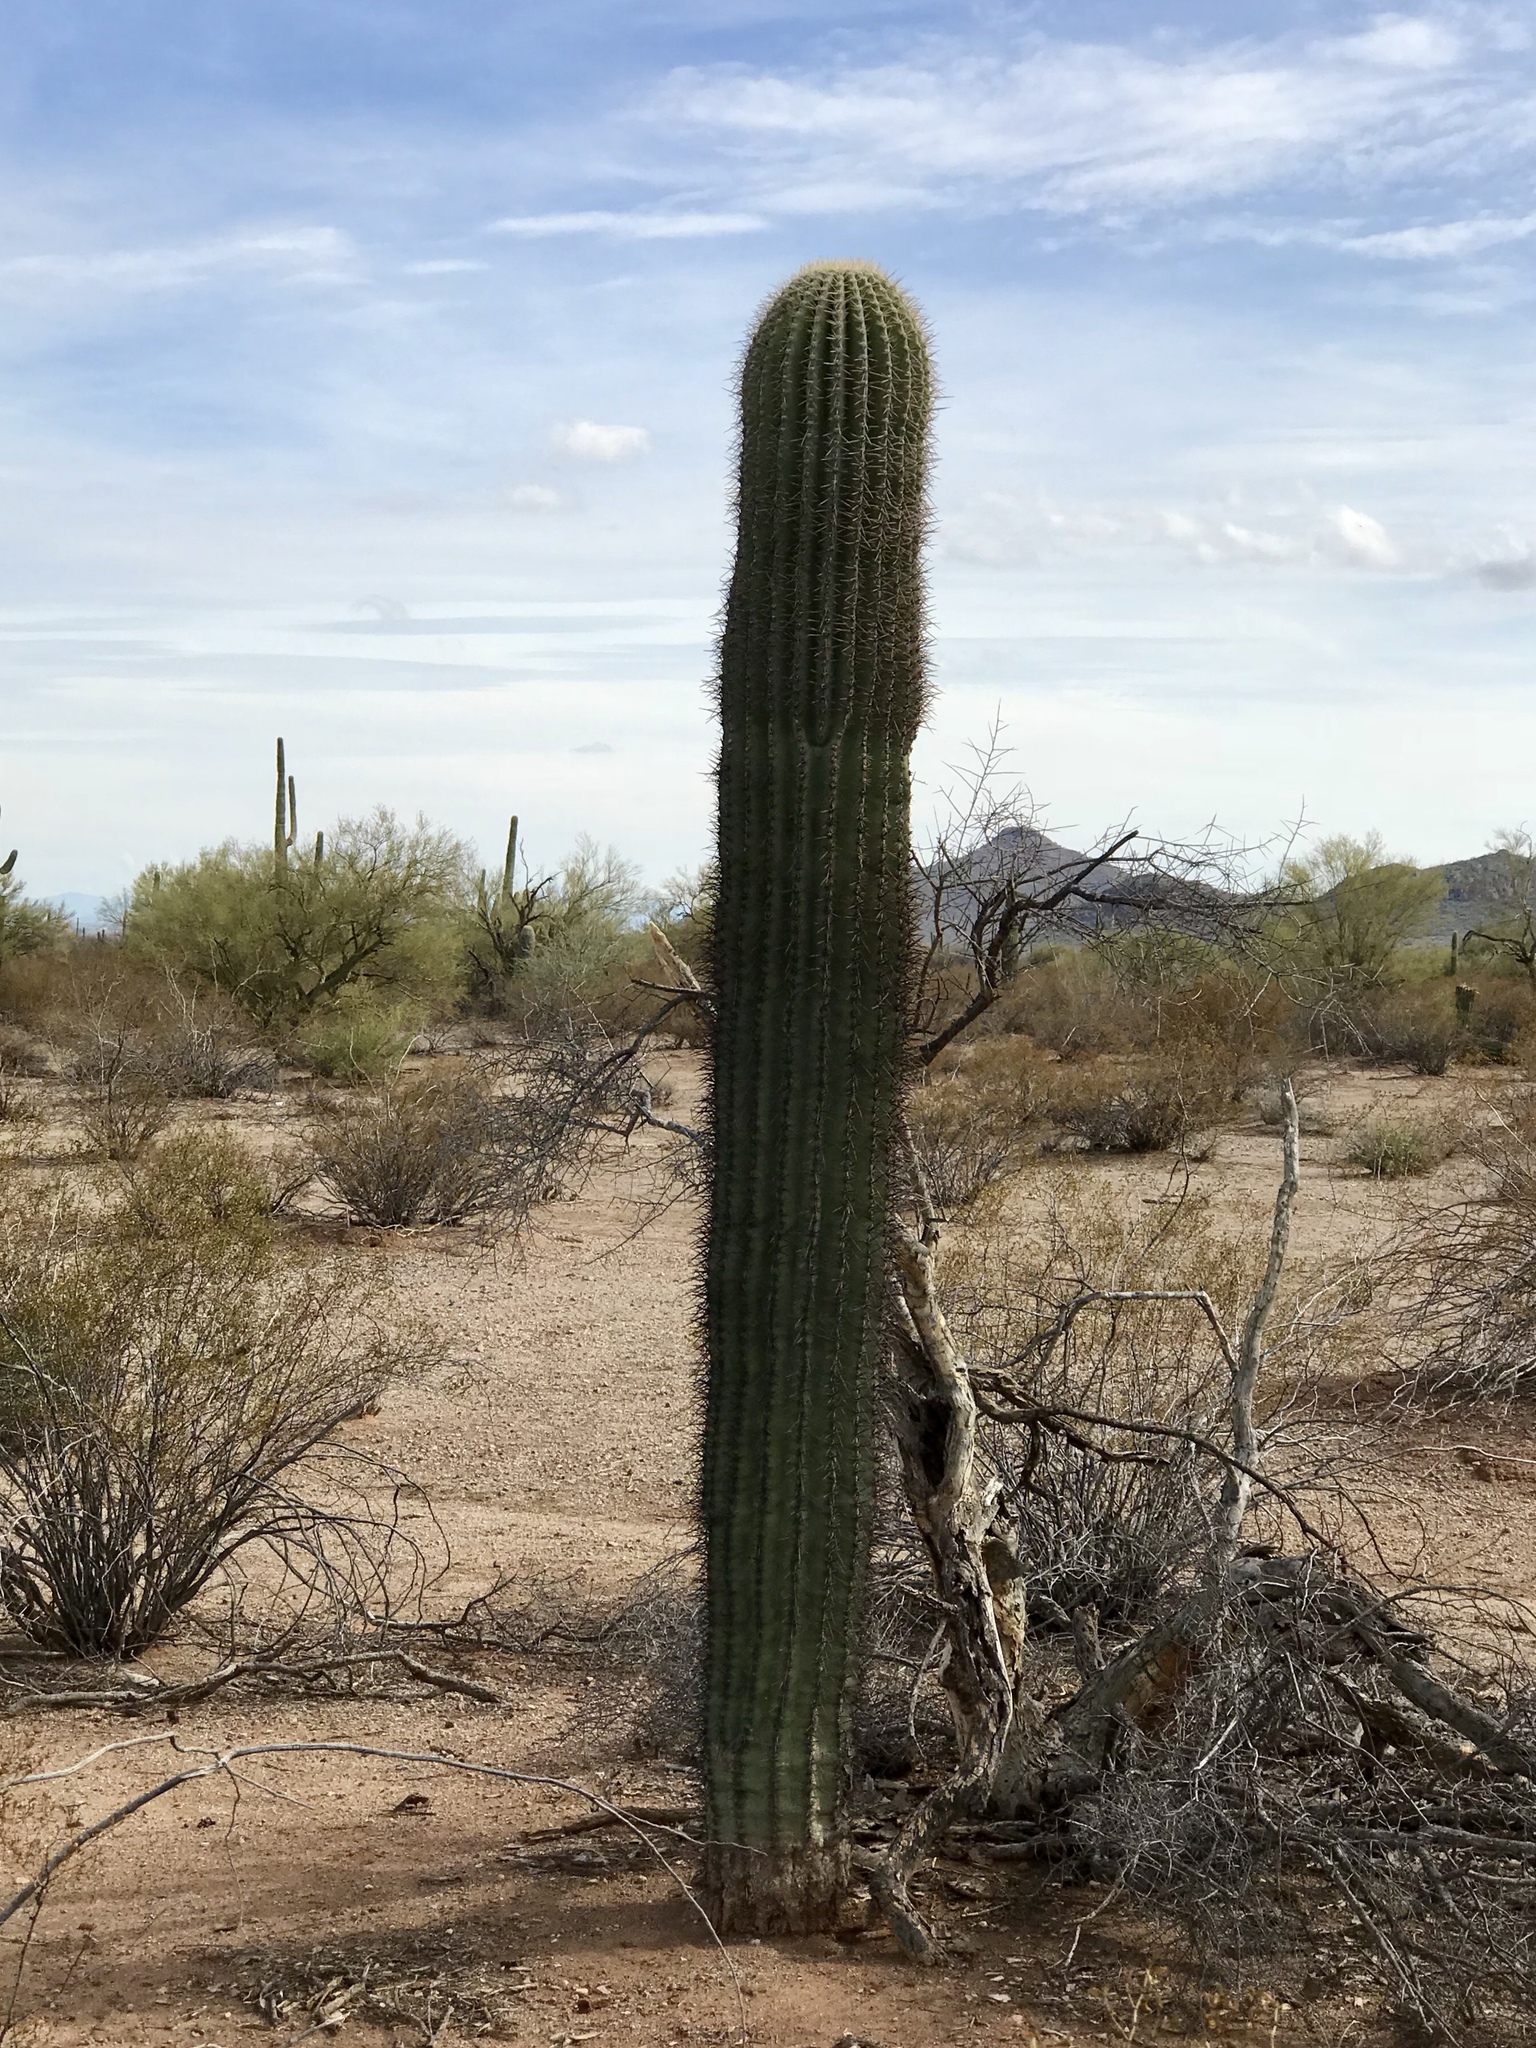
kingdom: Plantae
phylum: Tracheophyta
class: Magnoliopsida
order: Caryophyllales
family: Cactaceae
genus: Carnegiea
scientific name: Carnegiea gigantea
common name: Saguaro
